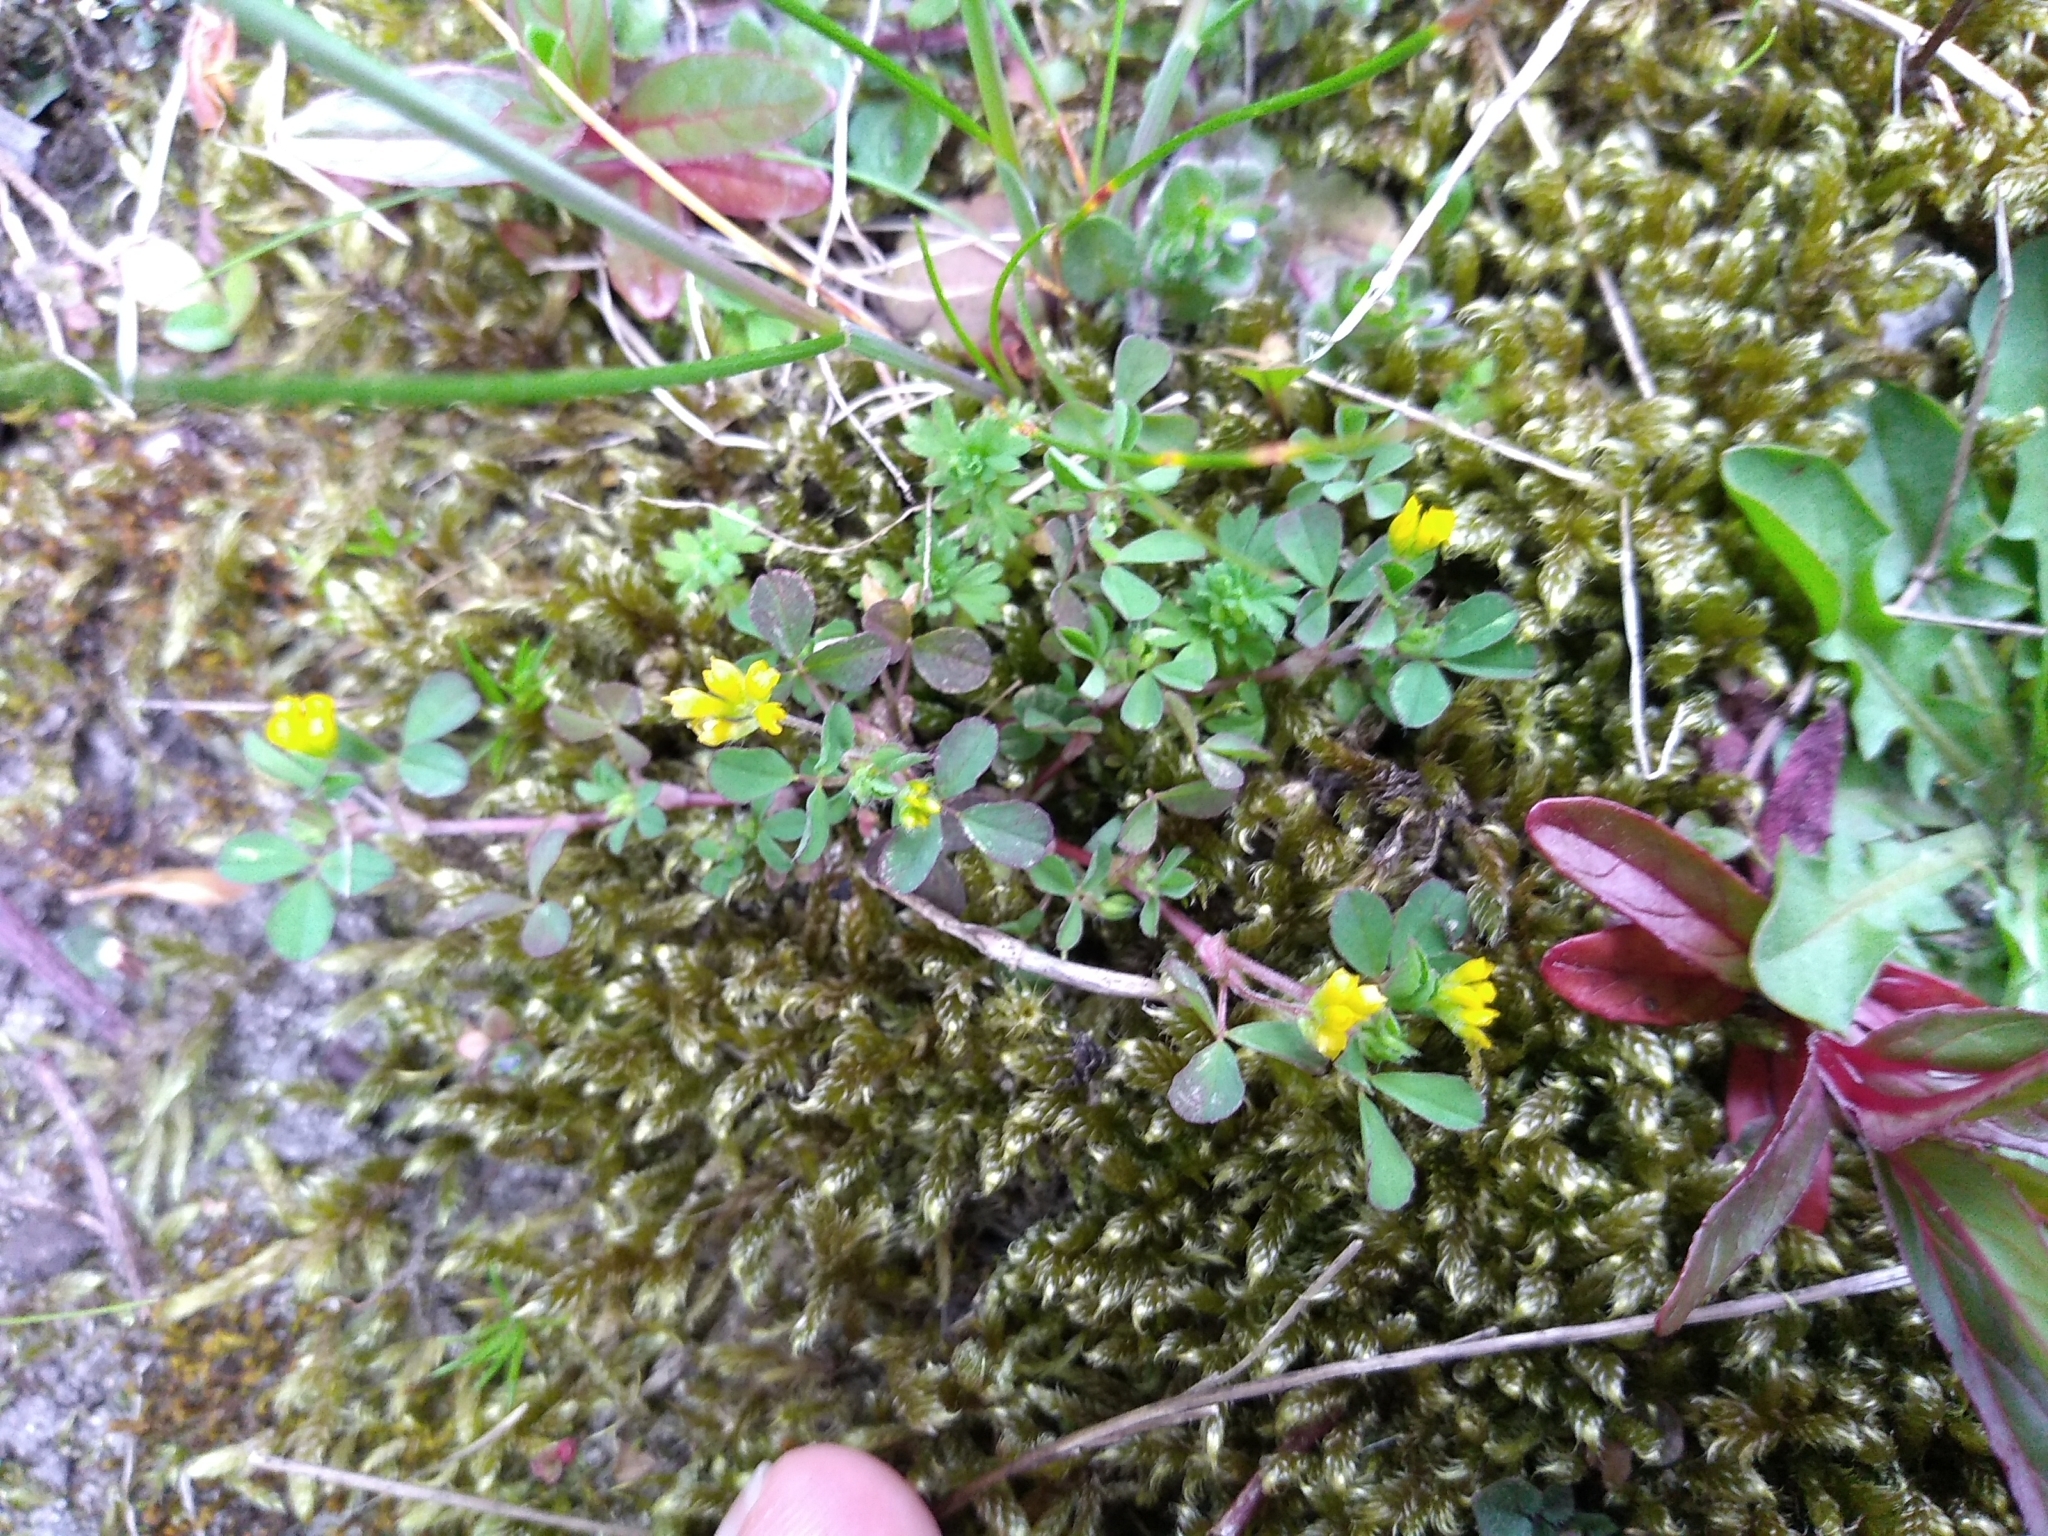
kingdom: Plantae
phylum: Tracheophyta
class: Magnoliopsida
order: Fabales
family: Fabaceae
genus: Trifolium
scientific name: Trifolium dubium
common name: Suckling clover
